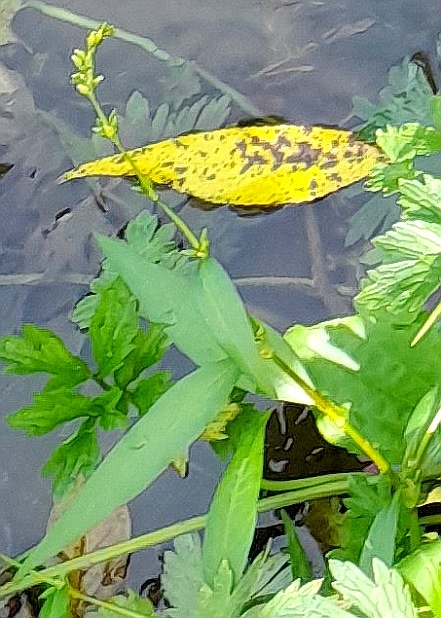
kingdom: Plantae
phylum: Tracheophyta
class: Magnoliopsida
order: Caryophyllales
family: Polygonaceae
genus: Persicaria
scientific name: Persicaria hydropiper
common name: Water-pepper
